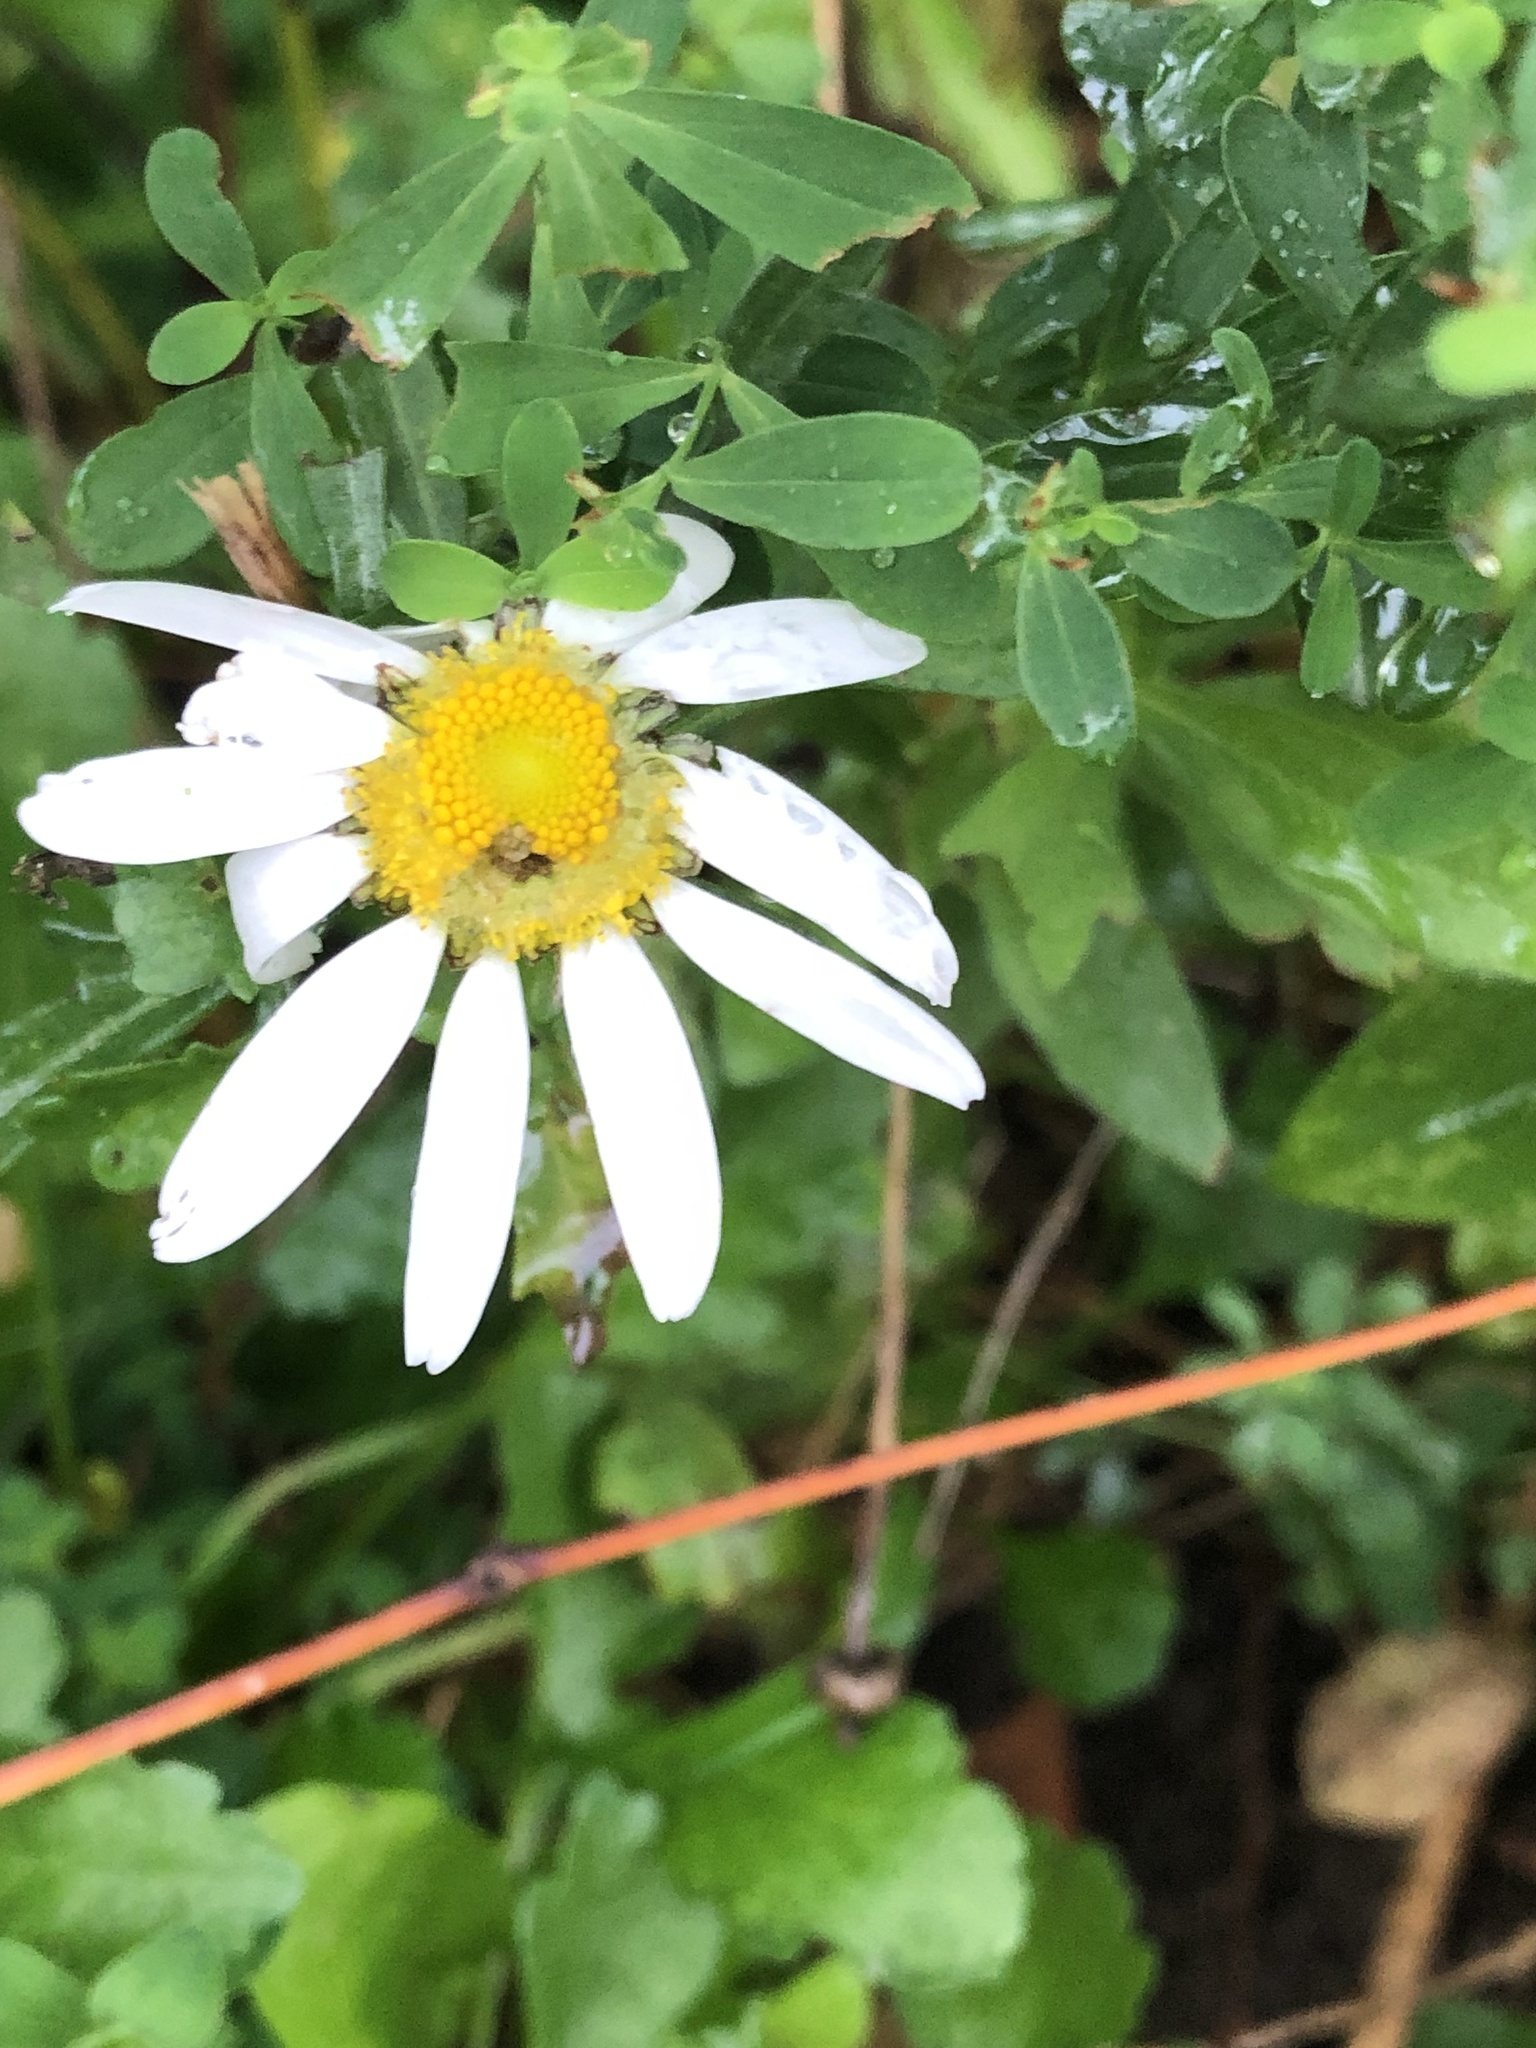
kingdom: Plantae
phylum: Tracheophyta
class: Magnoliopsida
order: Asterales
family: Asteraceae
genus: Leucanthemum
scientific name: Leucanthemum vulgare
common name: Oxeye daisy
